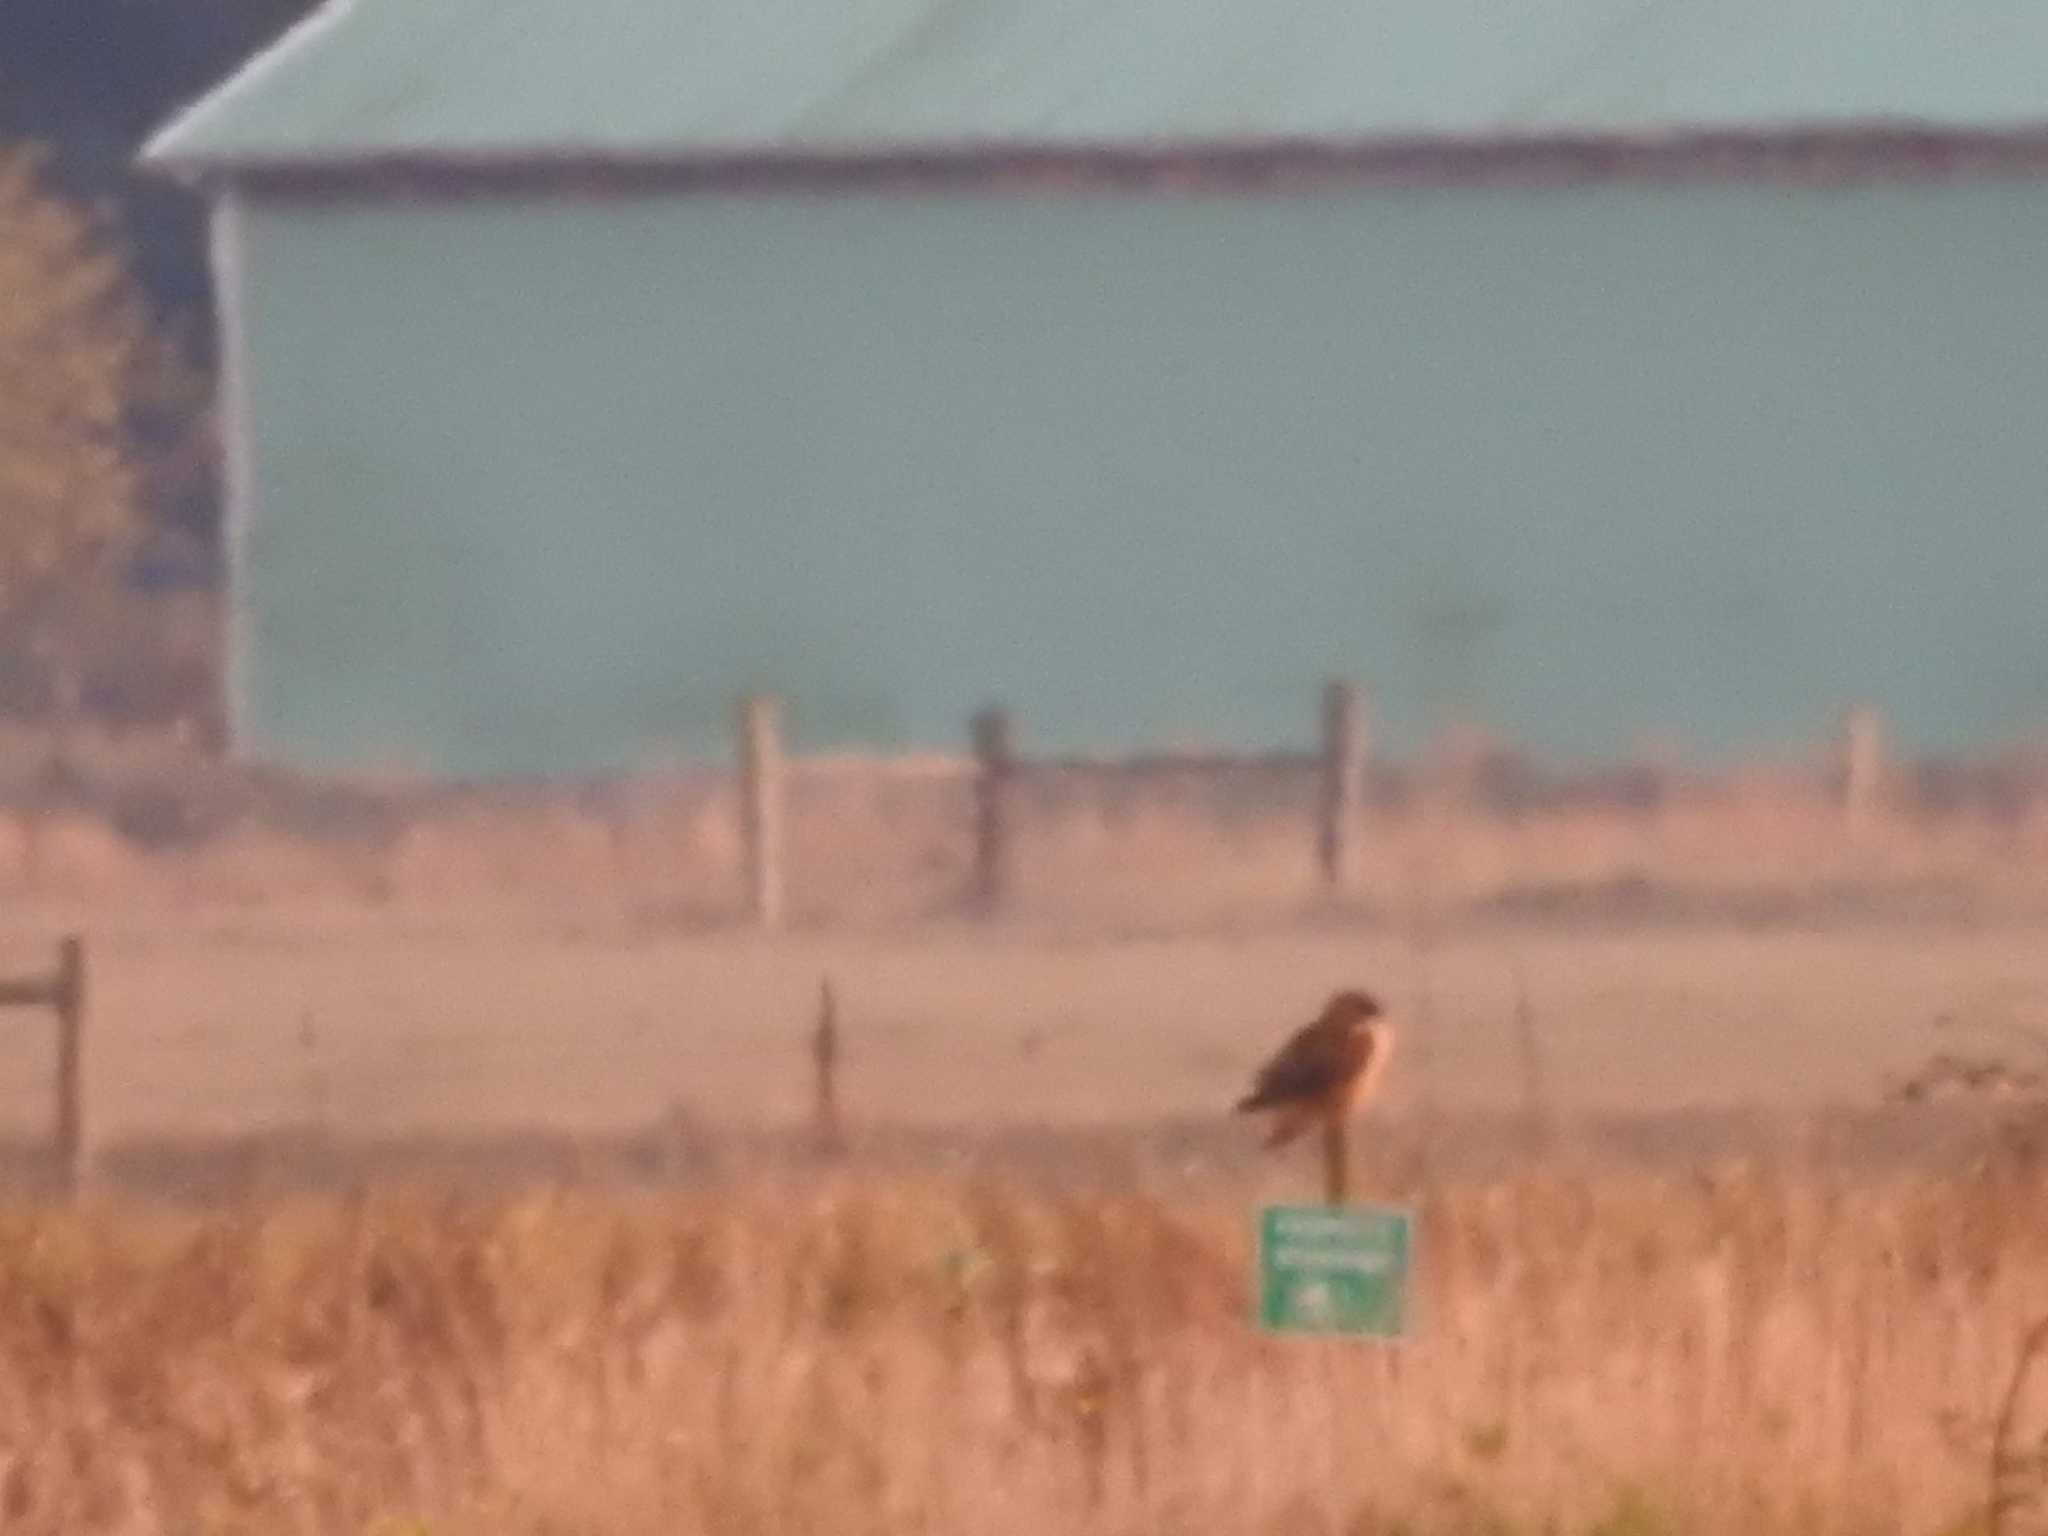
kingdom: Animalia
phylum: Chordata
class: Aves
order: Strigiformes
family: Strigidae
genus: Asio
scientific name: Asio flammeus
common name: Short-eared owl
